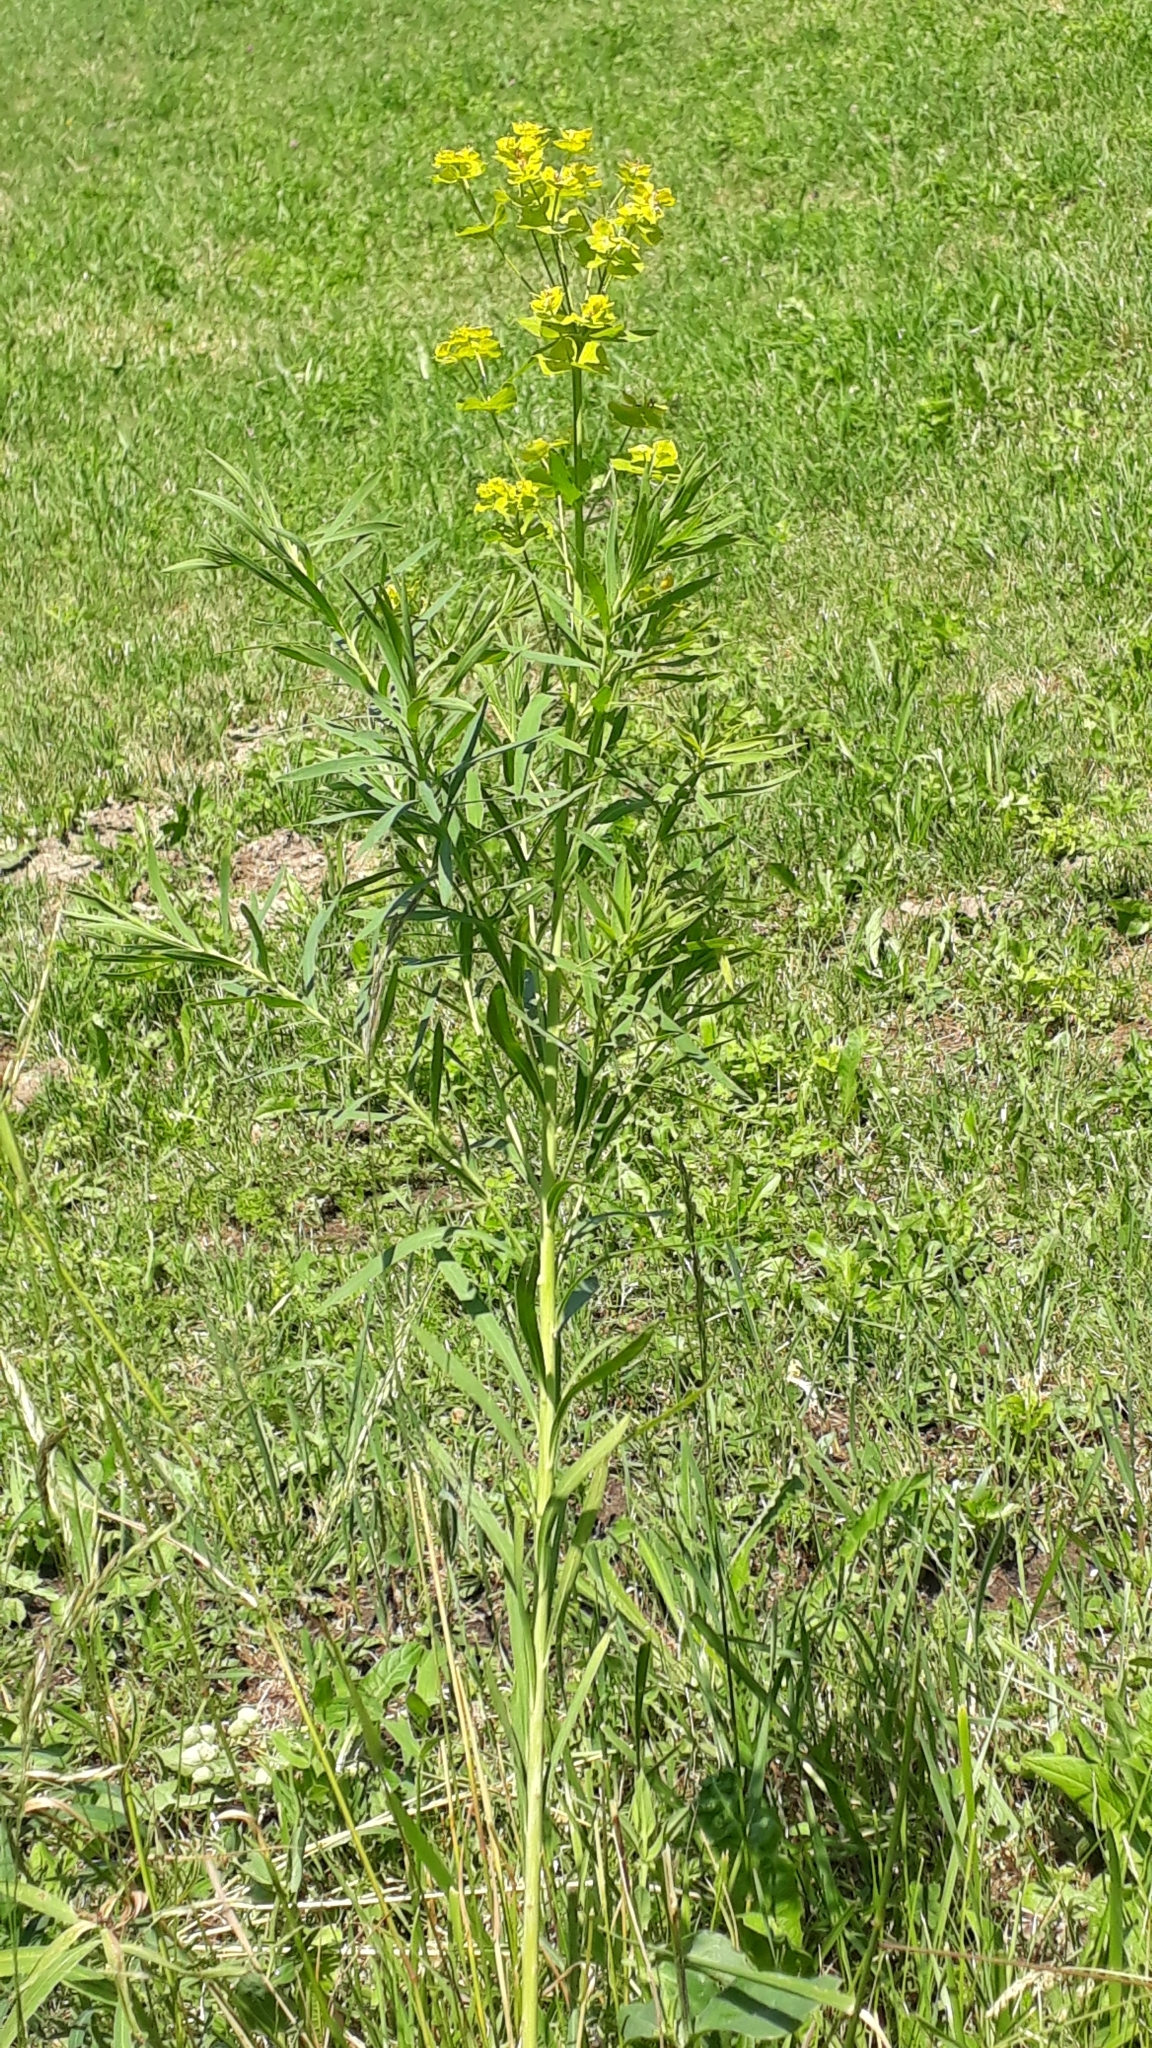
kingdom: Plantae
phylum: Tracheophyta
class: Magnoliopsida
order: Malpighiales
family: Euphorbiaceae
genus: Euphorbia
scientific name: Euphorbia virgata
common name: Leafy spurge
